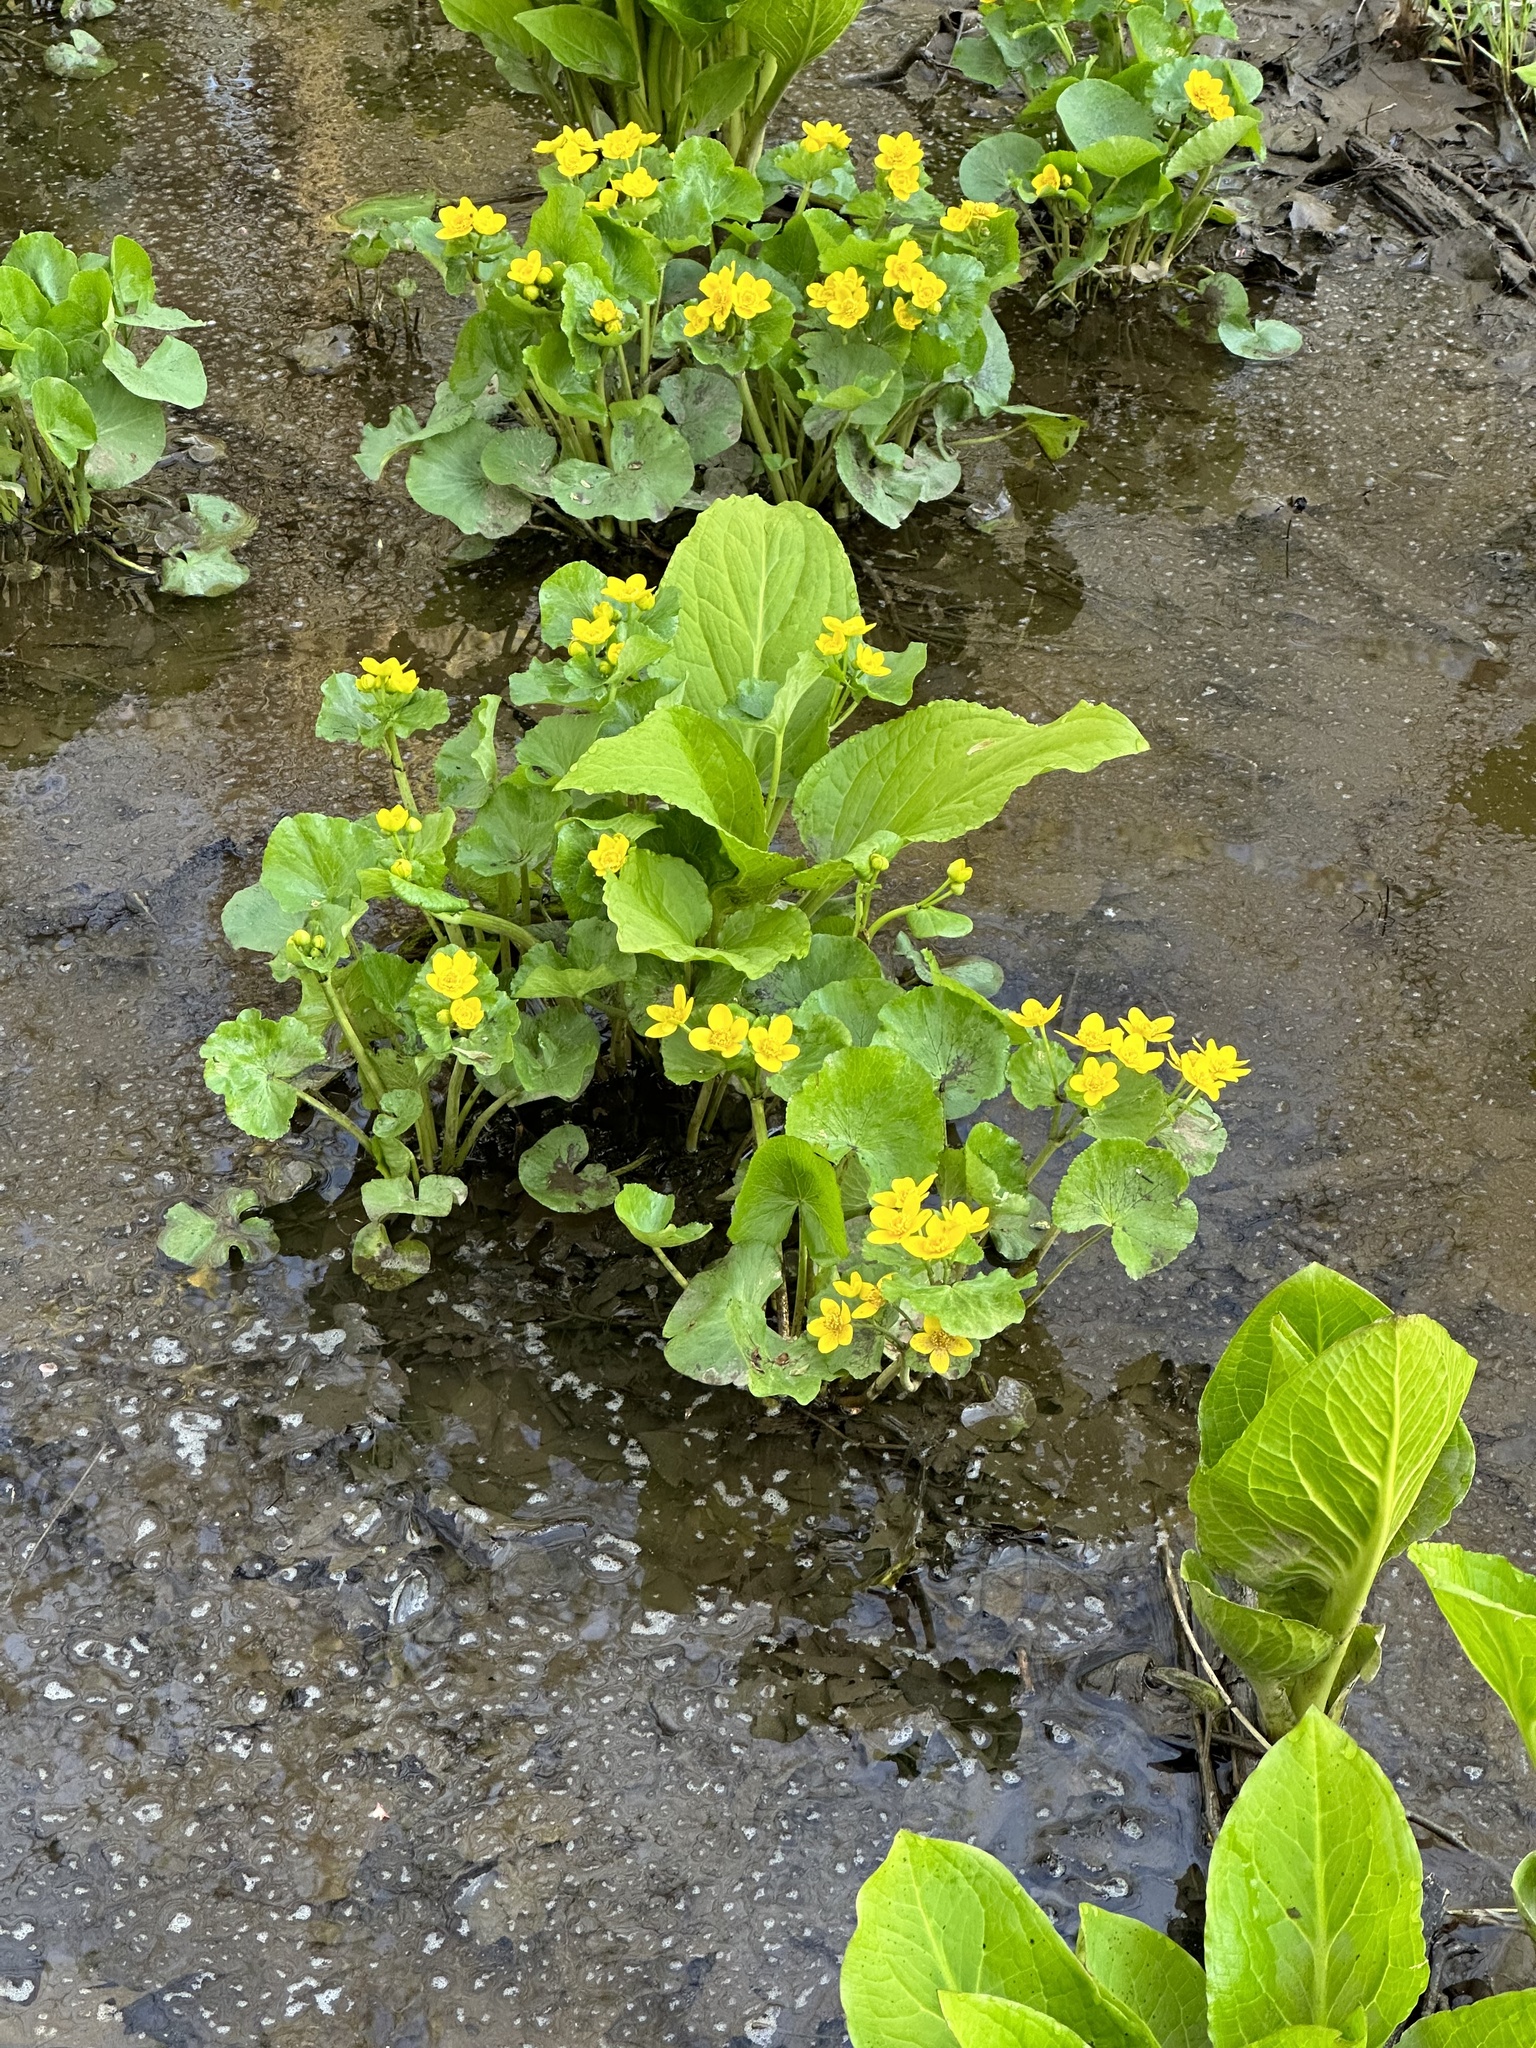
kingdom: Plantae
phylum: Tracheophyta
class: Magnoliopsida
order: Ranunculales
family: Ranunculaceae
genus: Caltha
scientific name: Caltha palustris
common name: Marsh marigold
